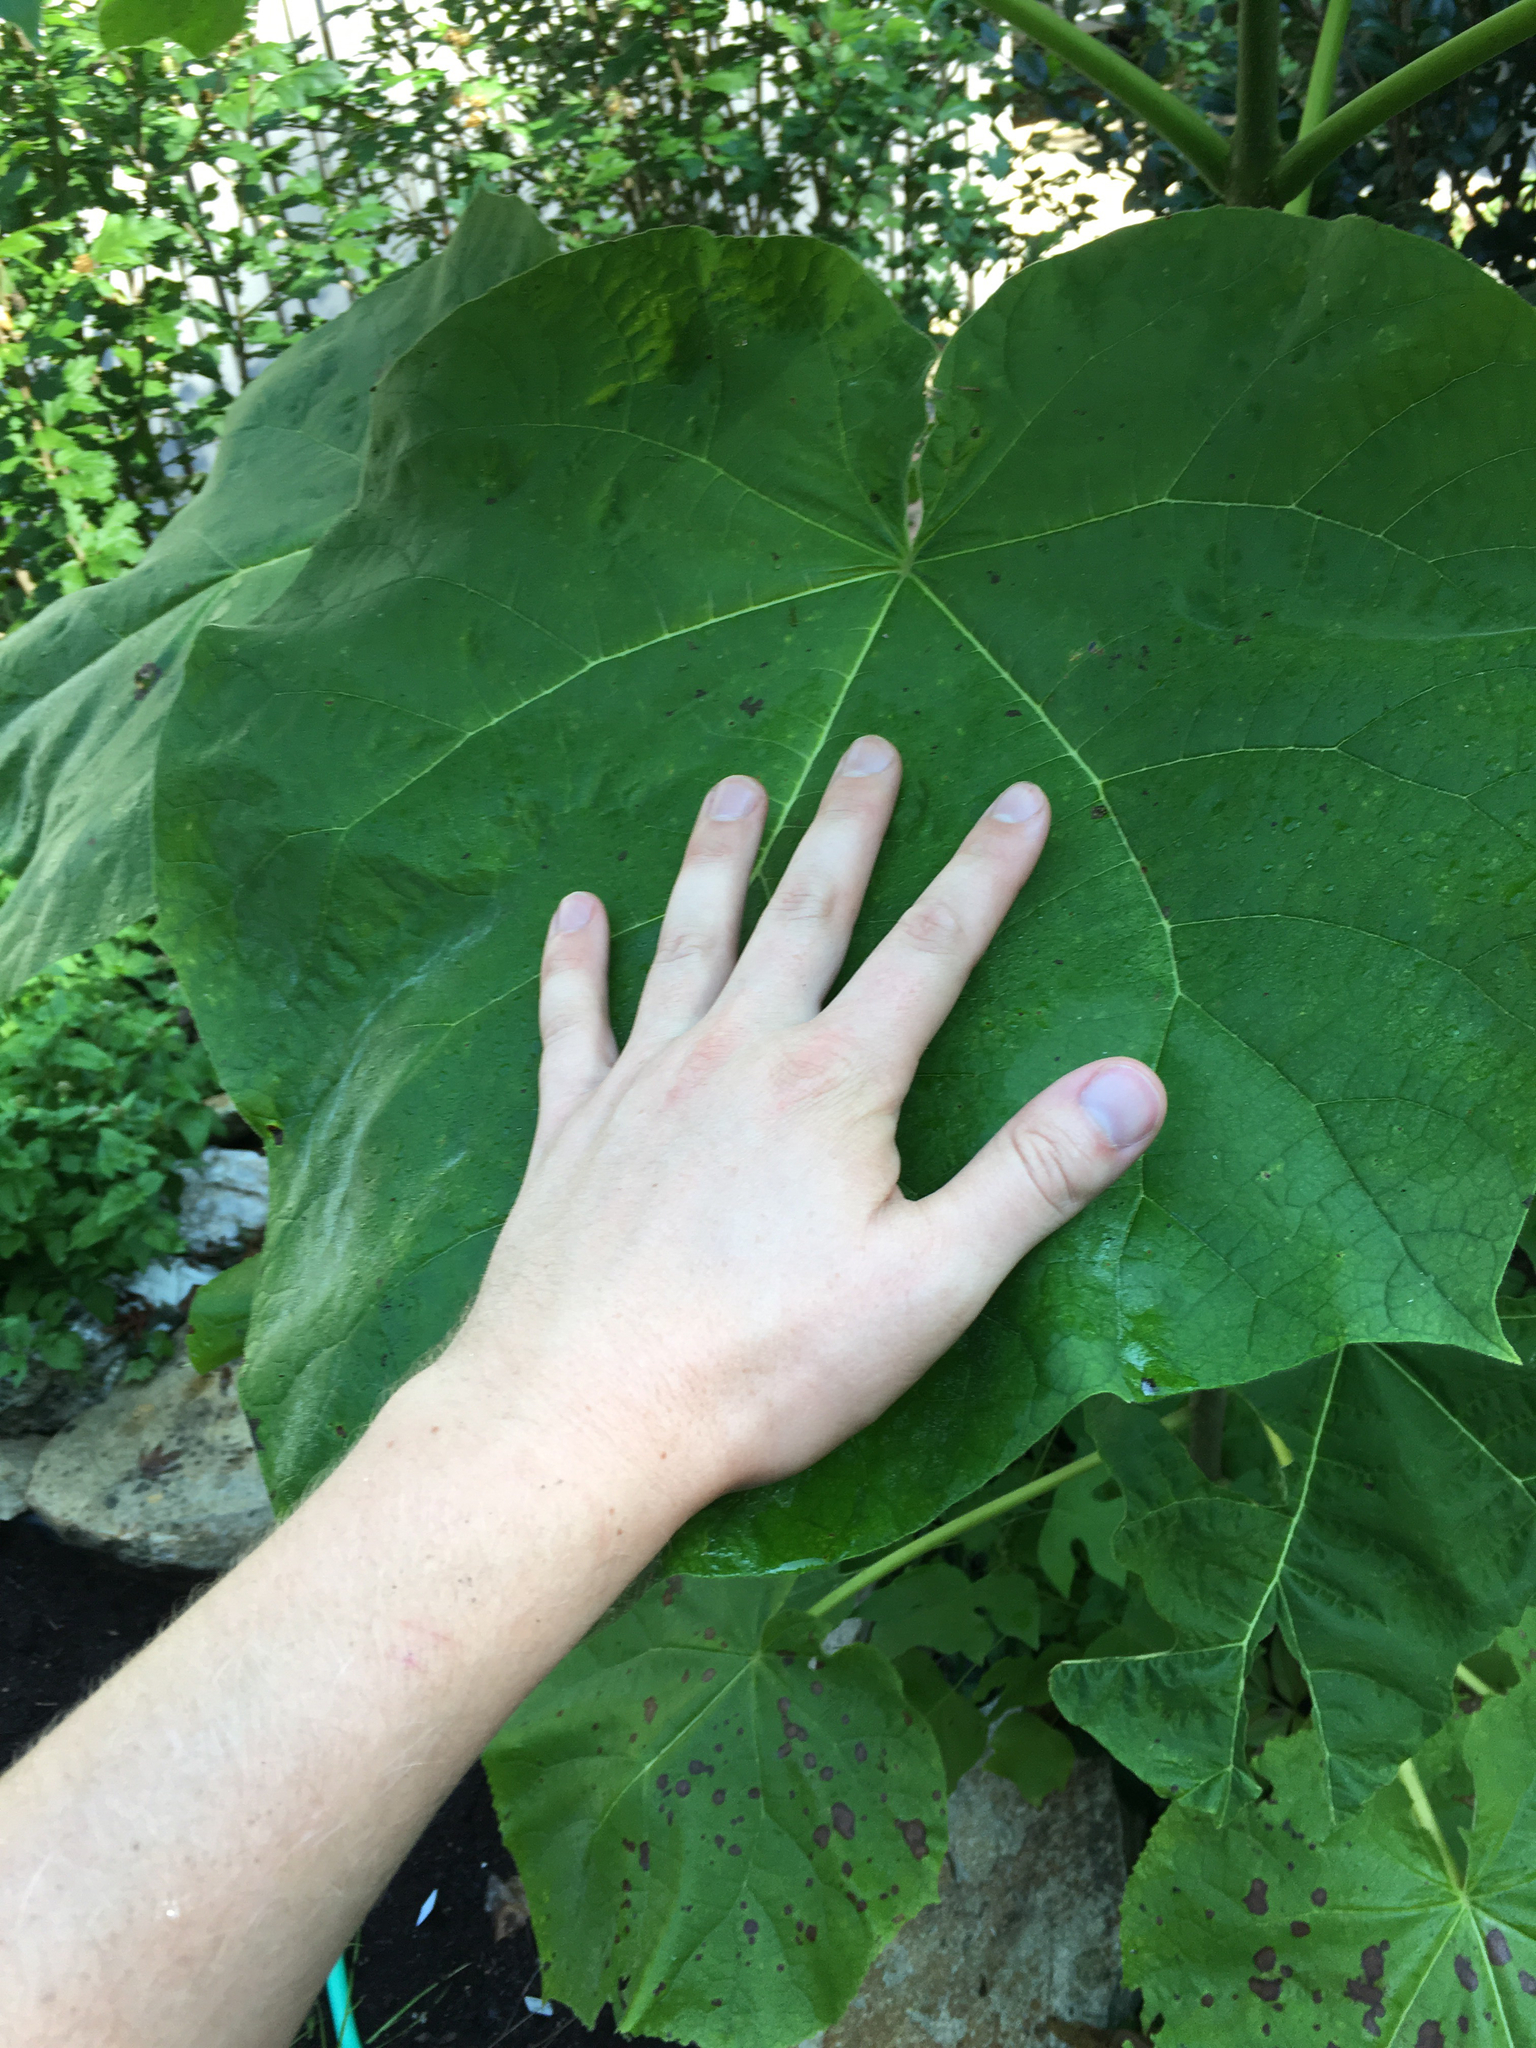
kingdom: Plantae
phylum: Tracheophyta
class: Magnoliopsida
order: Lamiales
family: Paulowniaceae
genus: Paulownia
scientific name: Paulownia tomentosa
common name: Foxglove-tree
